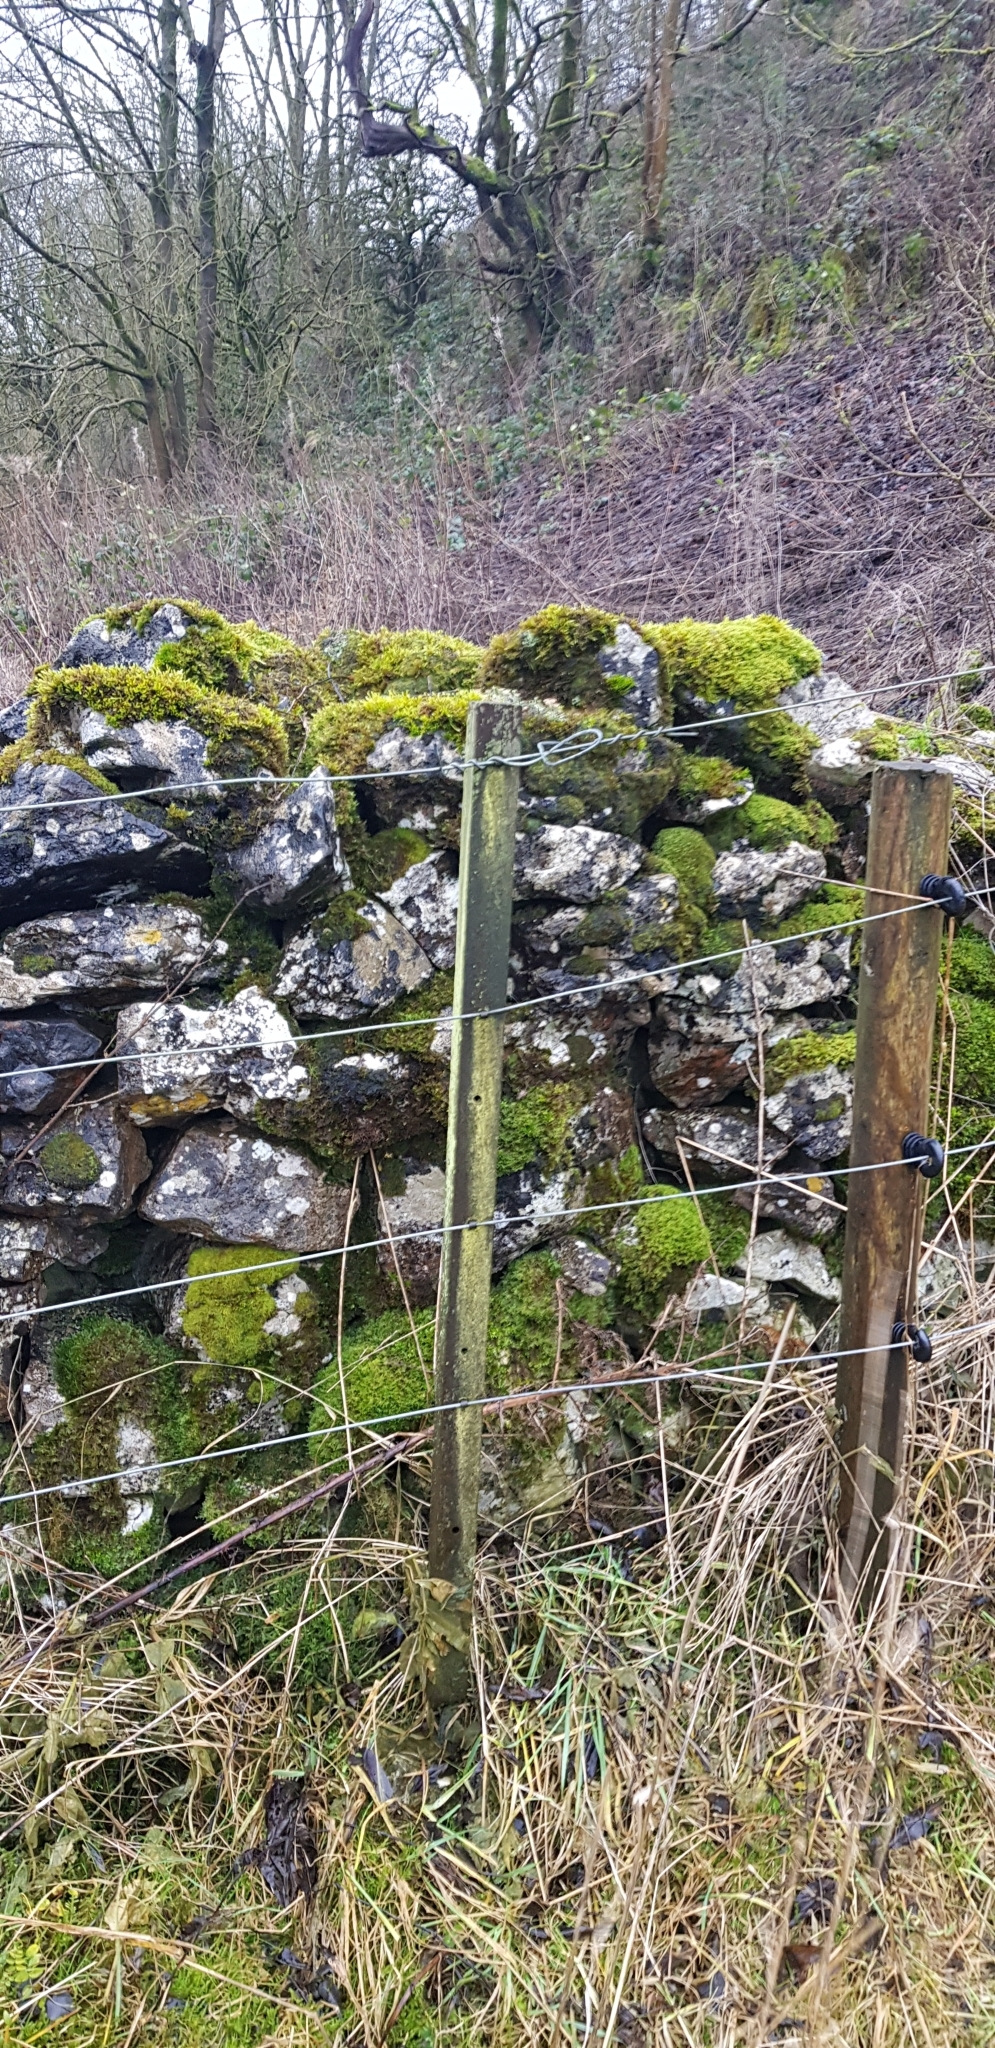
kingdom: Plantae
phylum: Marchantiophyta
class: Jungermanniopsida
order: Jungermanniales
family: Plagiochilaceae
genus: Plagiochila
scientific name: Plagiochila porelloides
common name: Lesser featherwort
